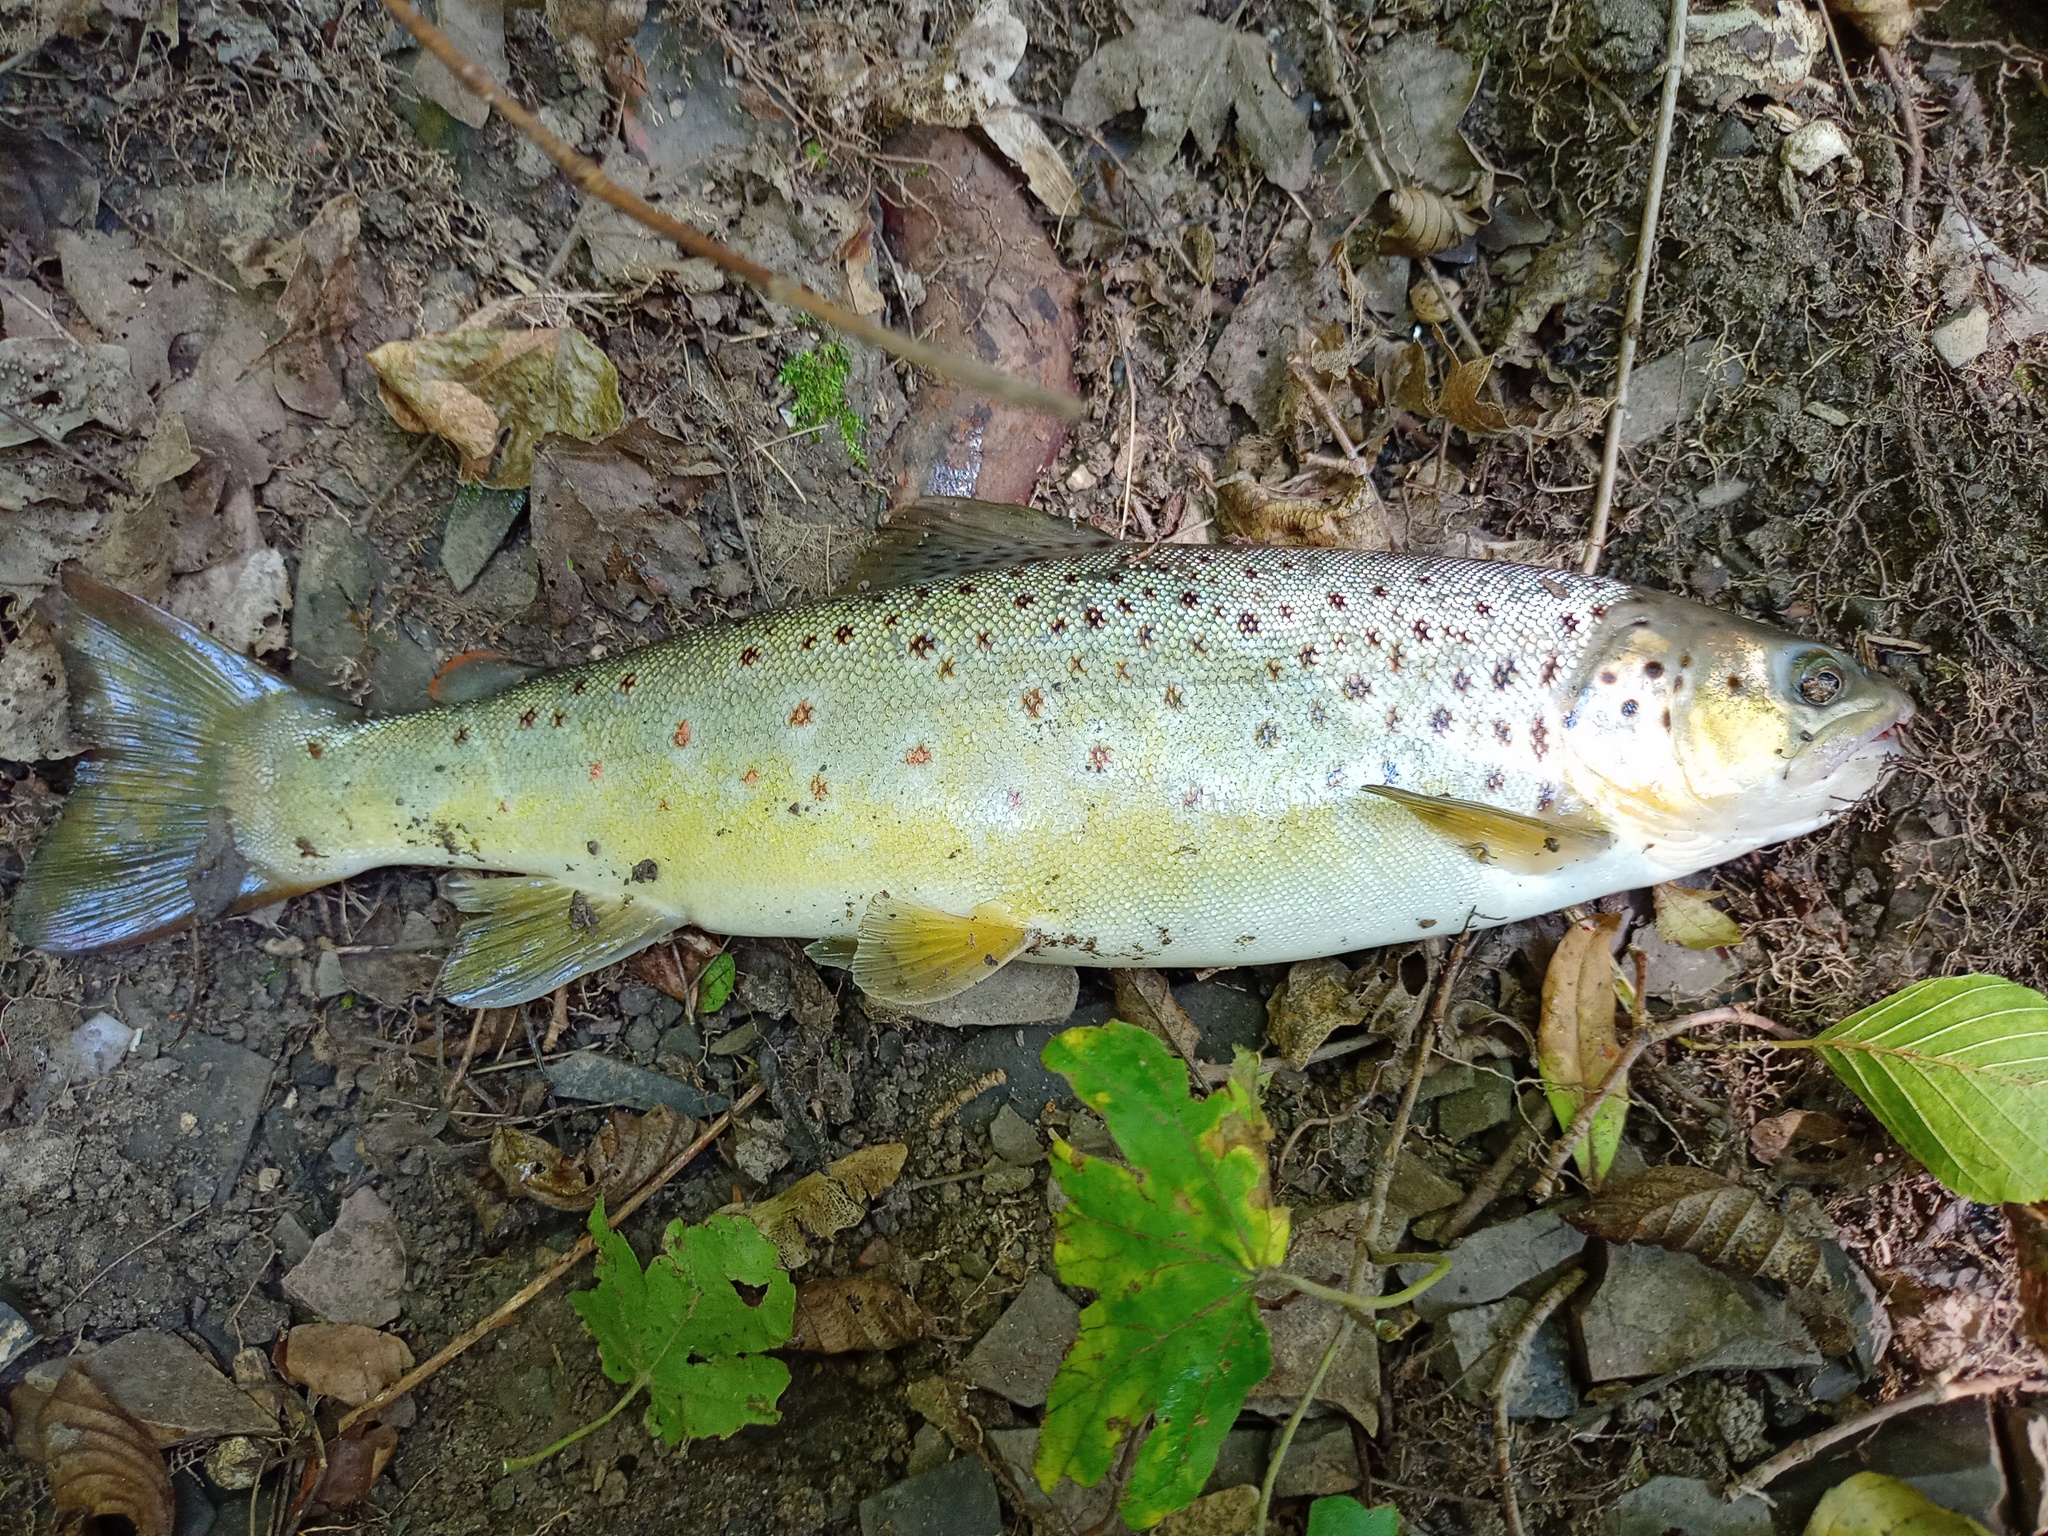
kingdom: Animalia
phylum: Chordata
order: Salmoniformes
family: Salmonidae
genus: Salmo
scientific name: Salmo trutta
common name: Brown trout
